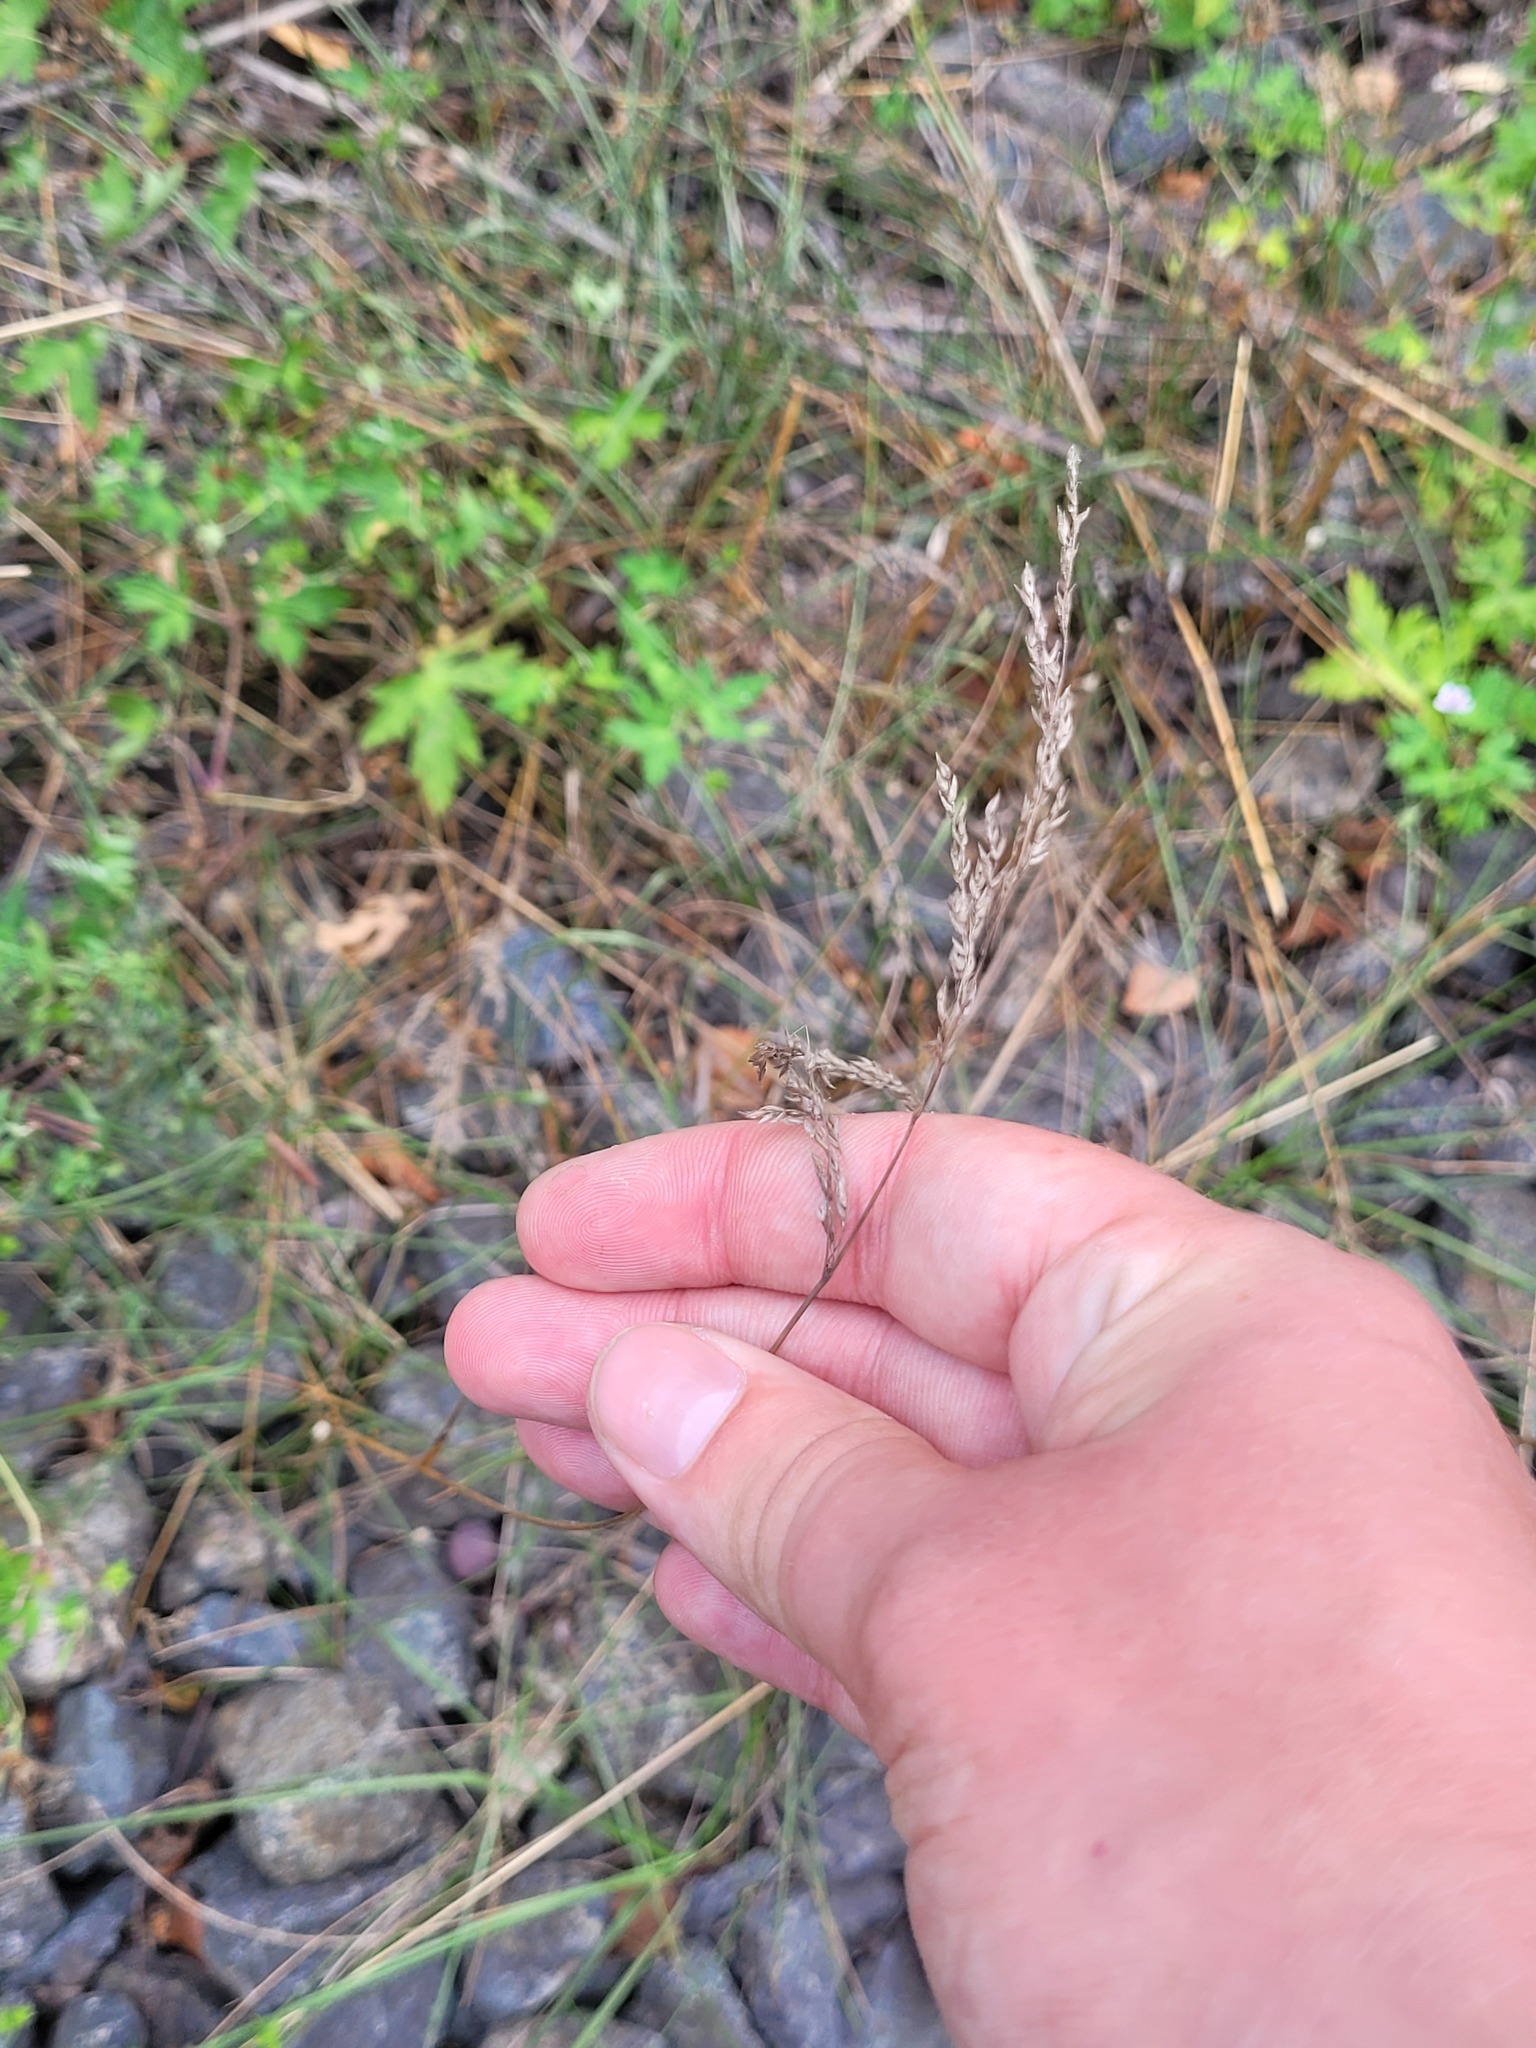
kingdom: Plantae
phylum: Tracheophyta
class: Liliopsida
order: Poales
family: Poaceae
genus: Poa
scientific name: Poa angustifolia
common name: Narrow-leaved meadow-grass
